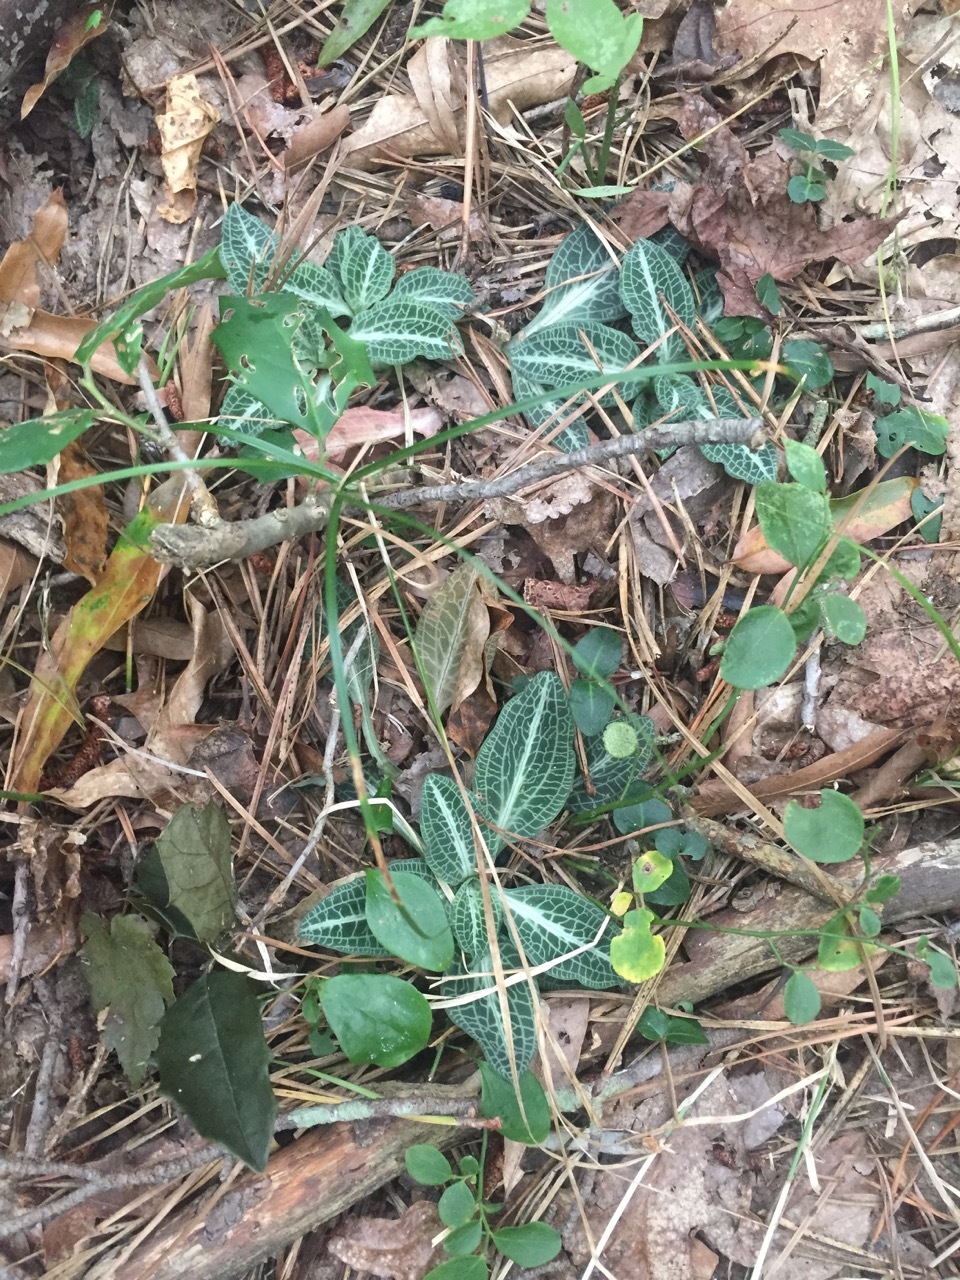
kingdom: Plantae
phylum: Tracheophyta
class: Liliopsida
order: Asparagales
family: Orchidaceae
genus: Goodyera
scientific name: Goodyera pubescens
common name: Downy rattlesnake-plantain
